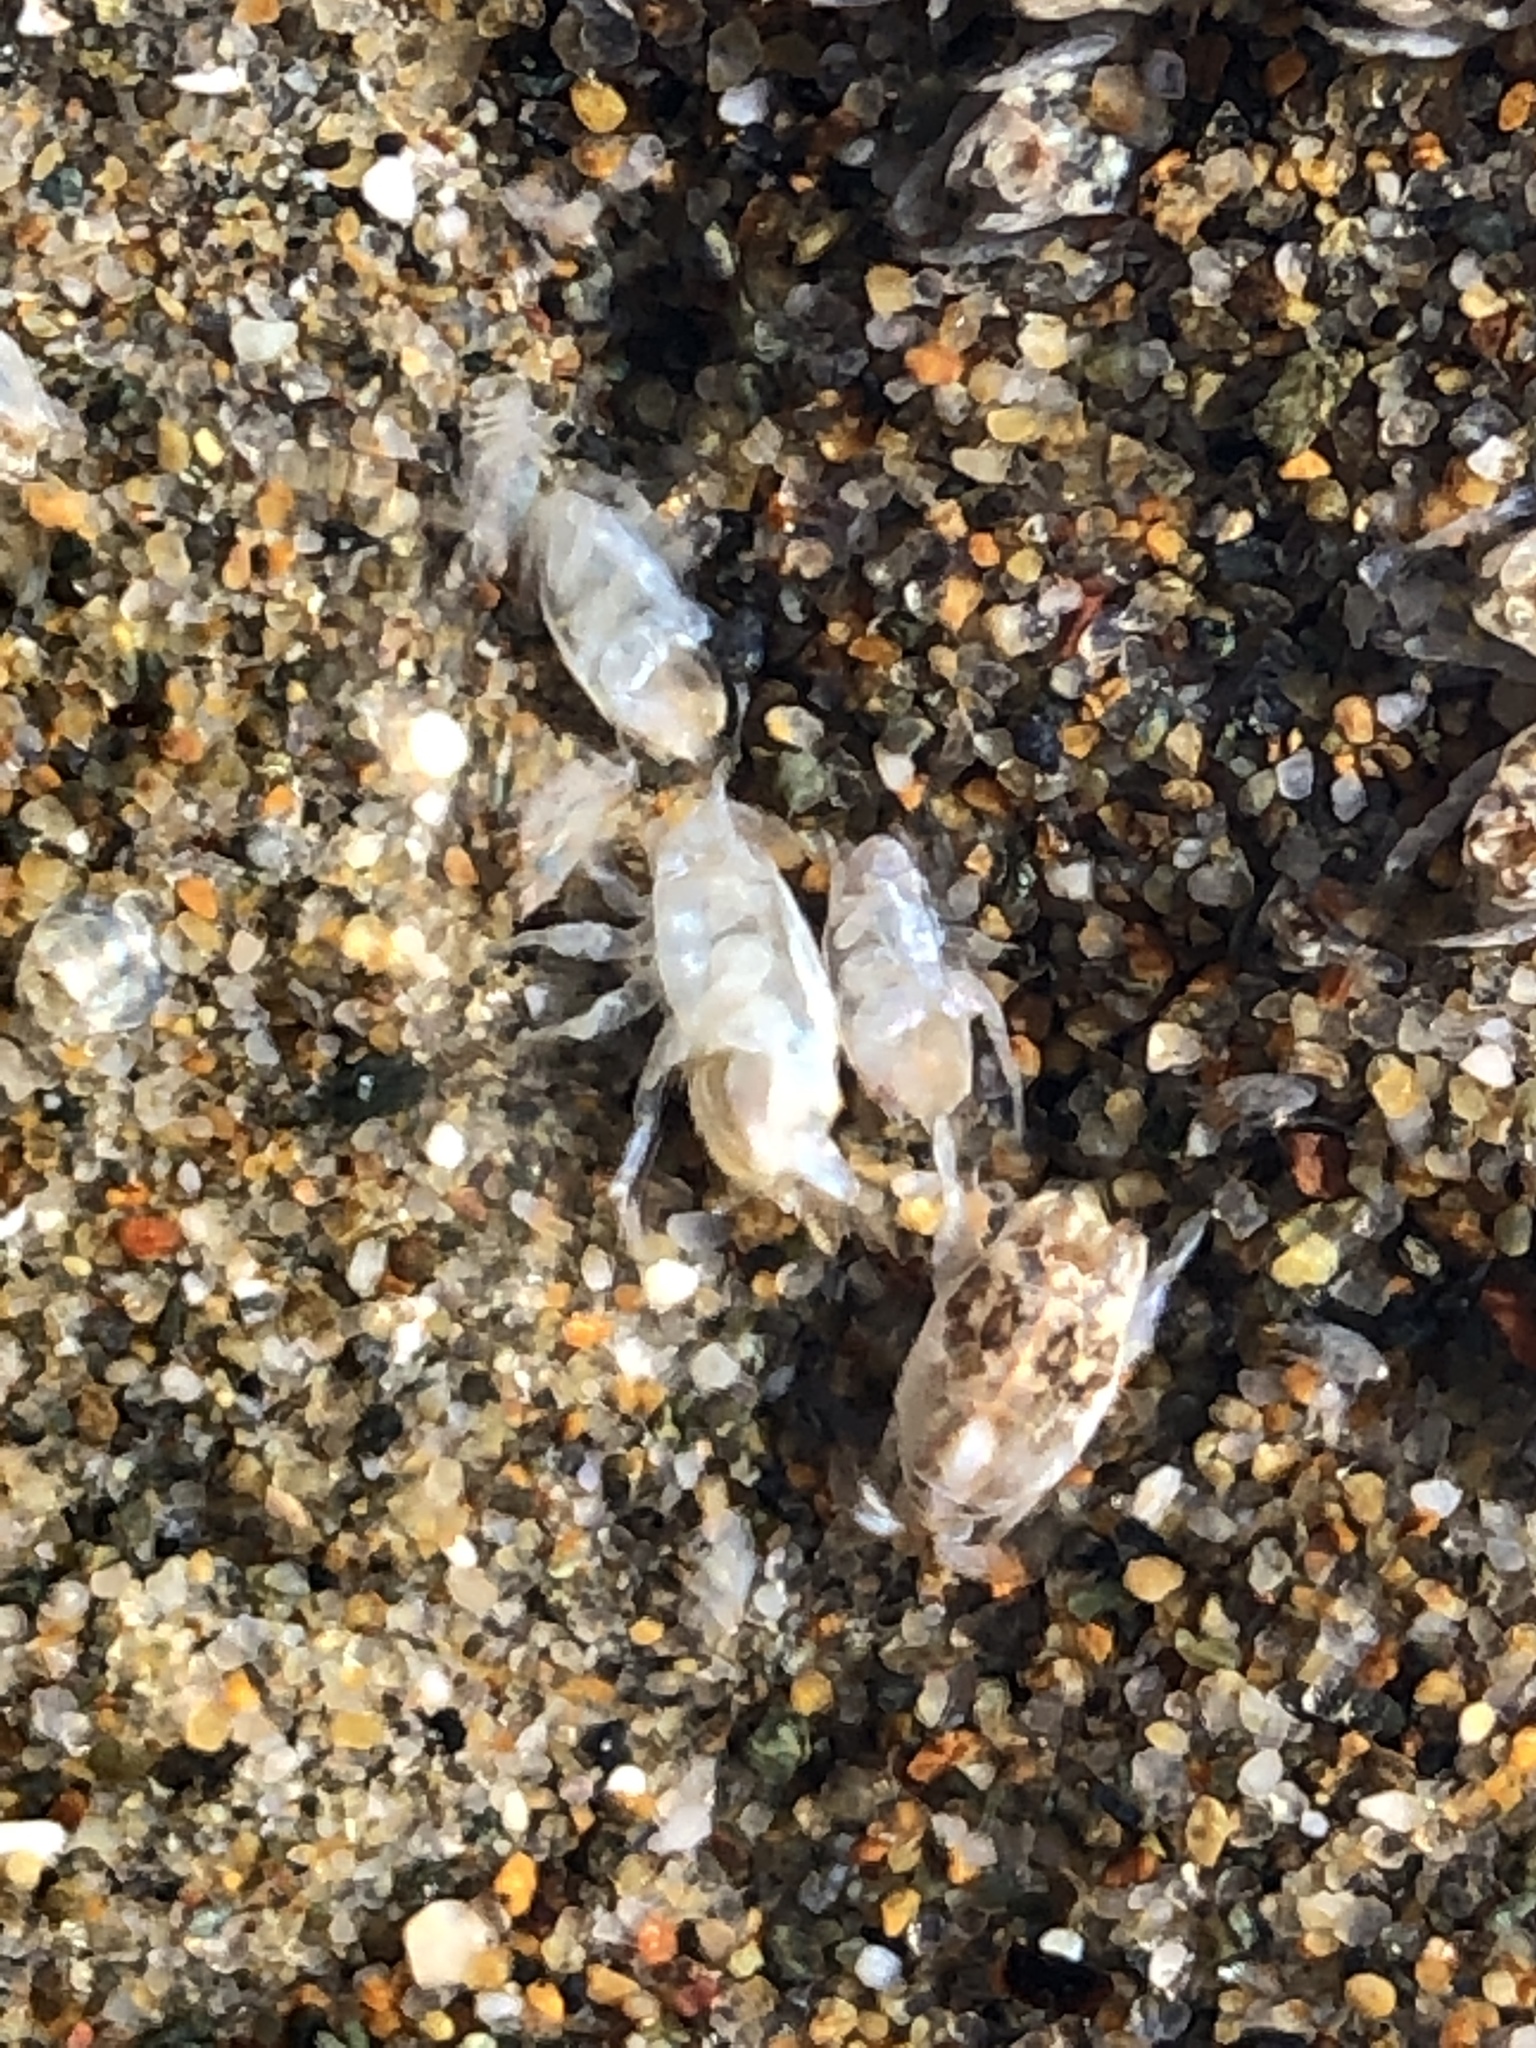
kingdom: Animalia
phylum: Arthropoda
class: Malacostraca
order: Decapoda
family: Hippidae
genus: Emerita
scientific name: Emerita analoga
